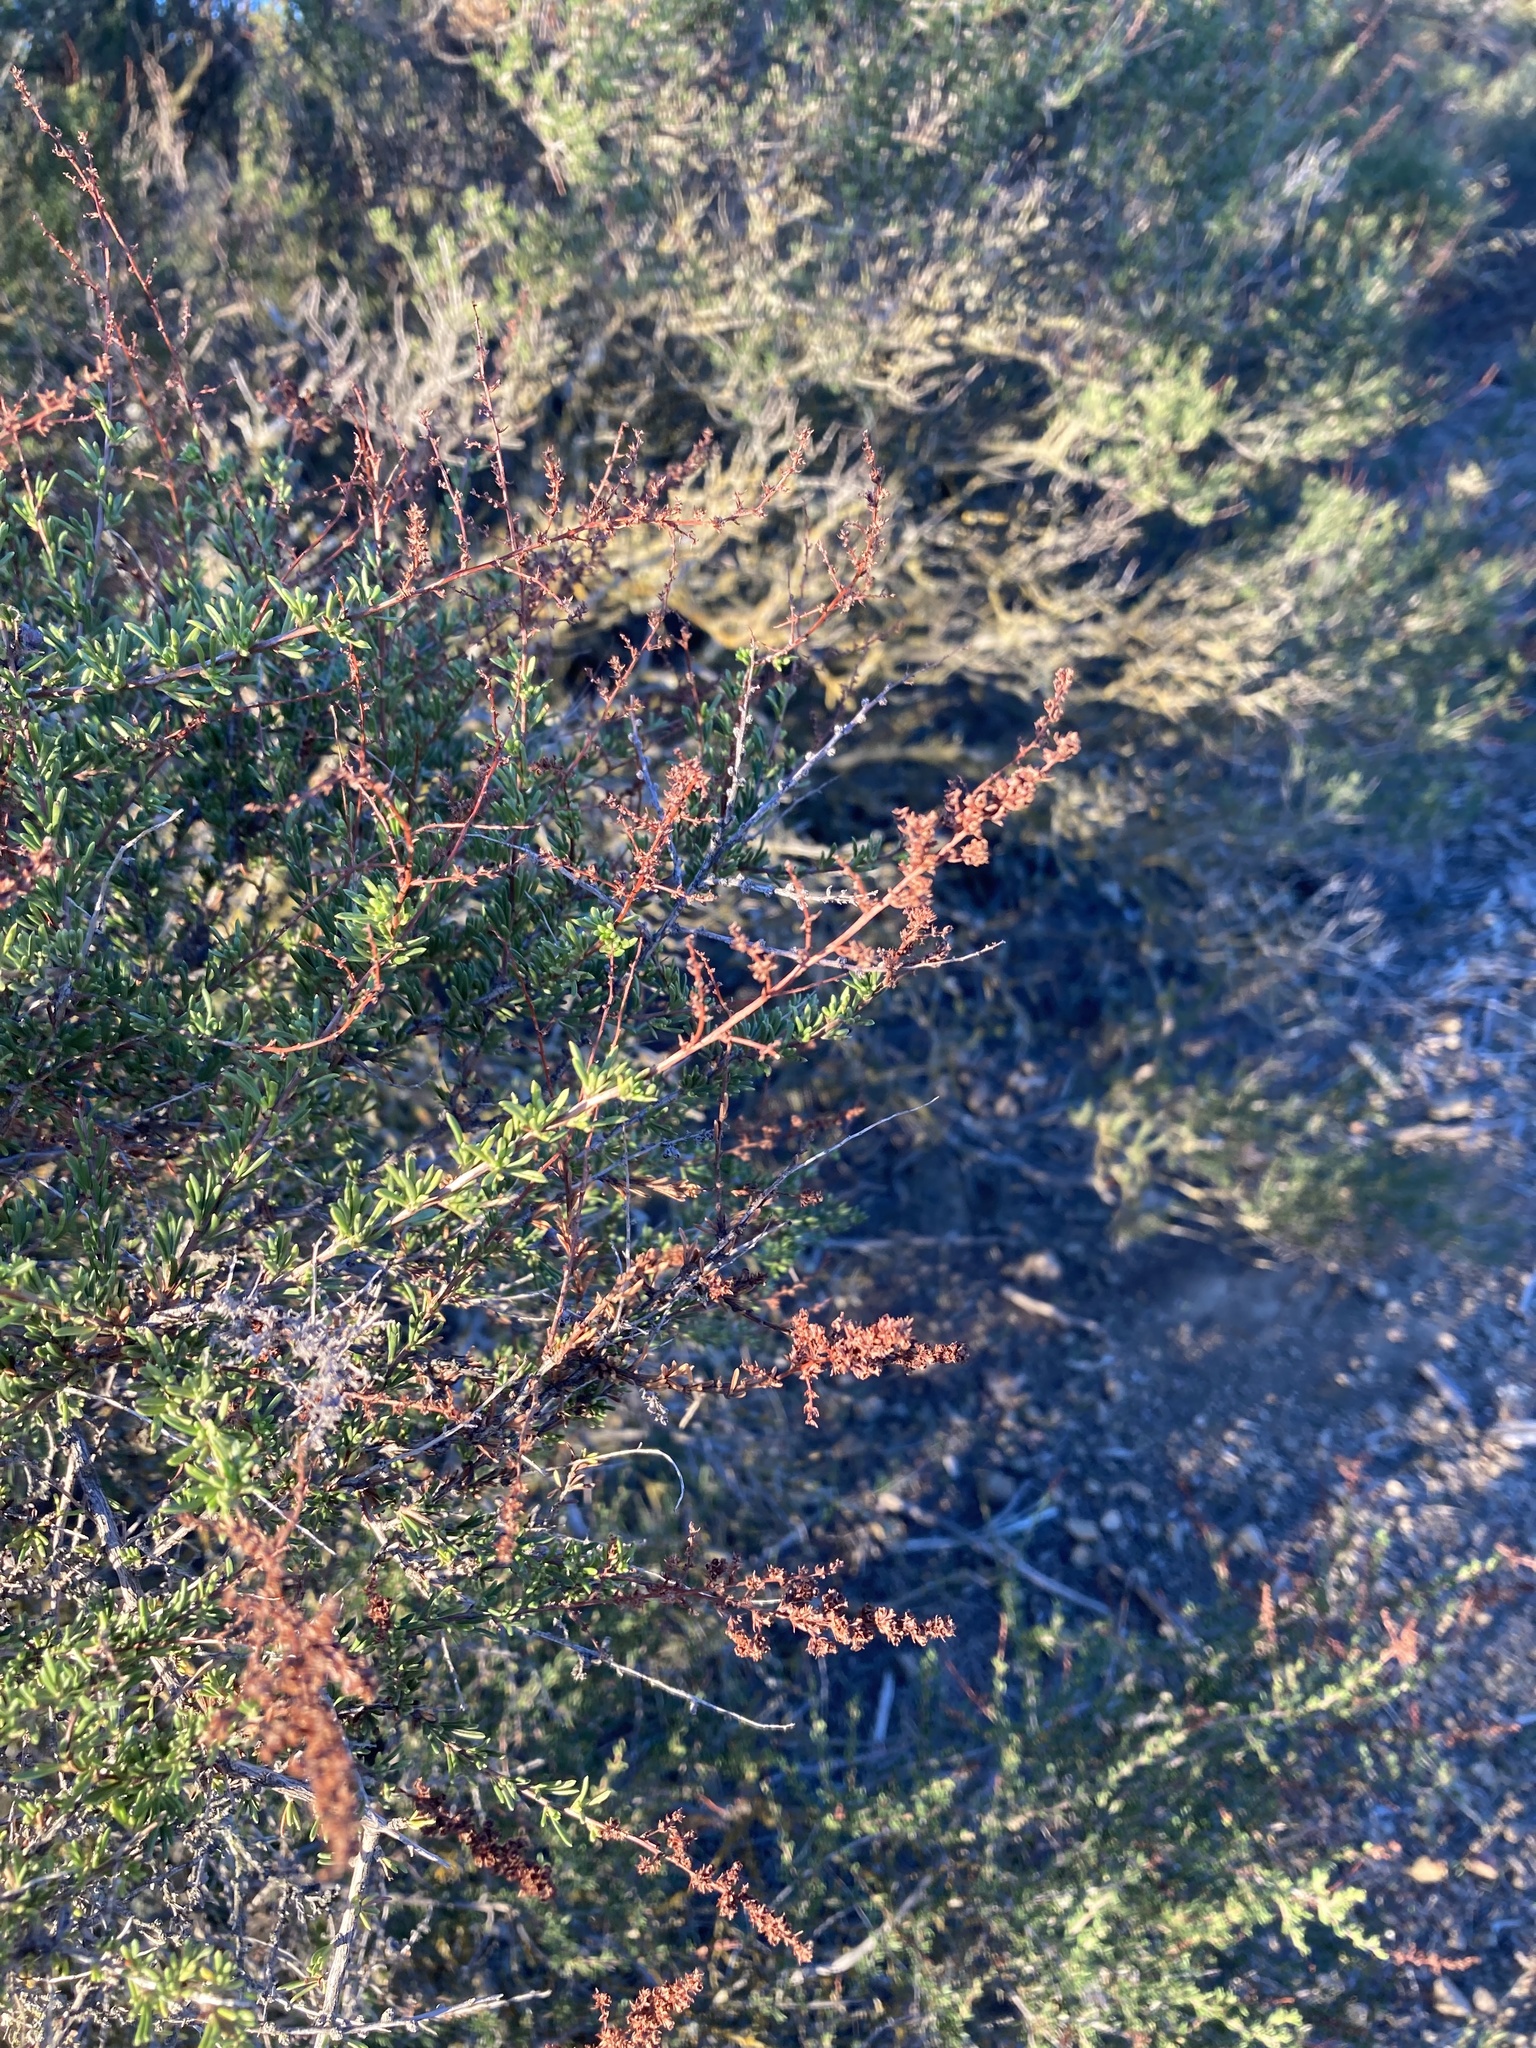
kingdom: Plantae
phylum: Tracheophyta
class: Magnoliopsida
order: Rosales
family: Rosaceae
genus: Adenostoma
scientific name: Adenostoma fasciculatum
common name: Chamise
